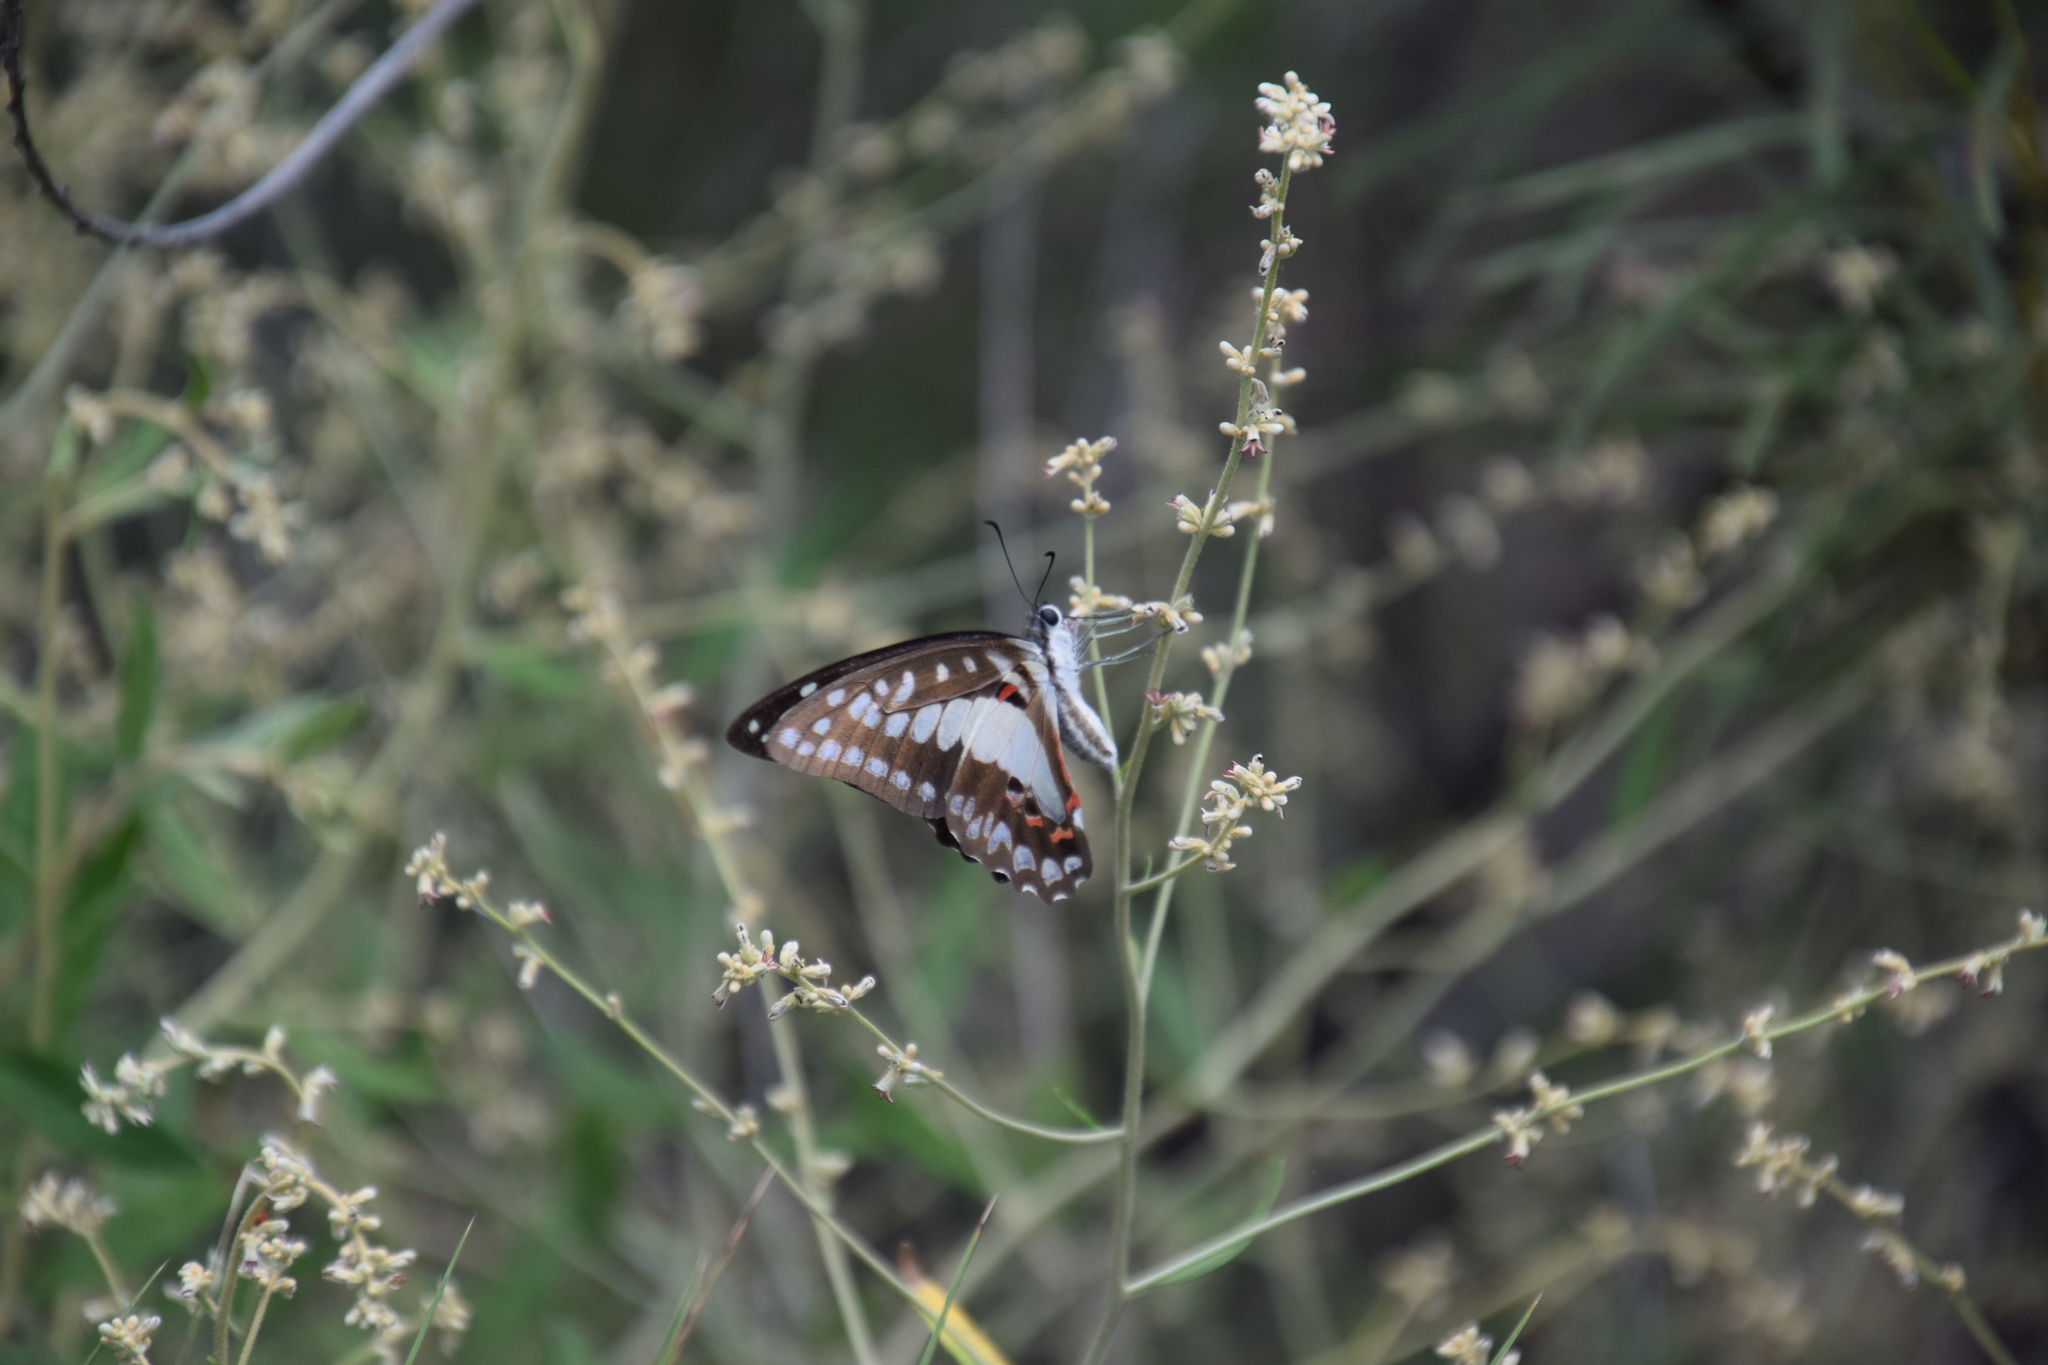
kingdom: Animalia
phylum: Arthropoda
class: Insecta
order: Lepidoptera
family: Papilionidae
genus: Graphium
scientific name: Graphium eurypylus
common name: Great jay
